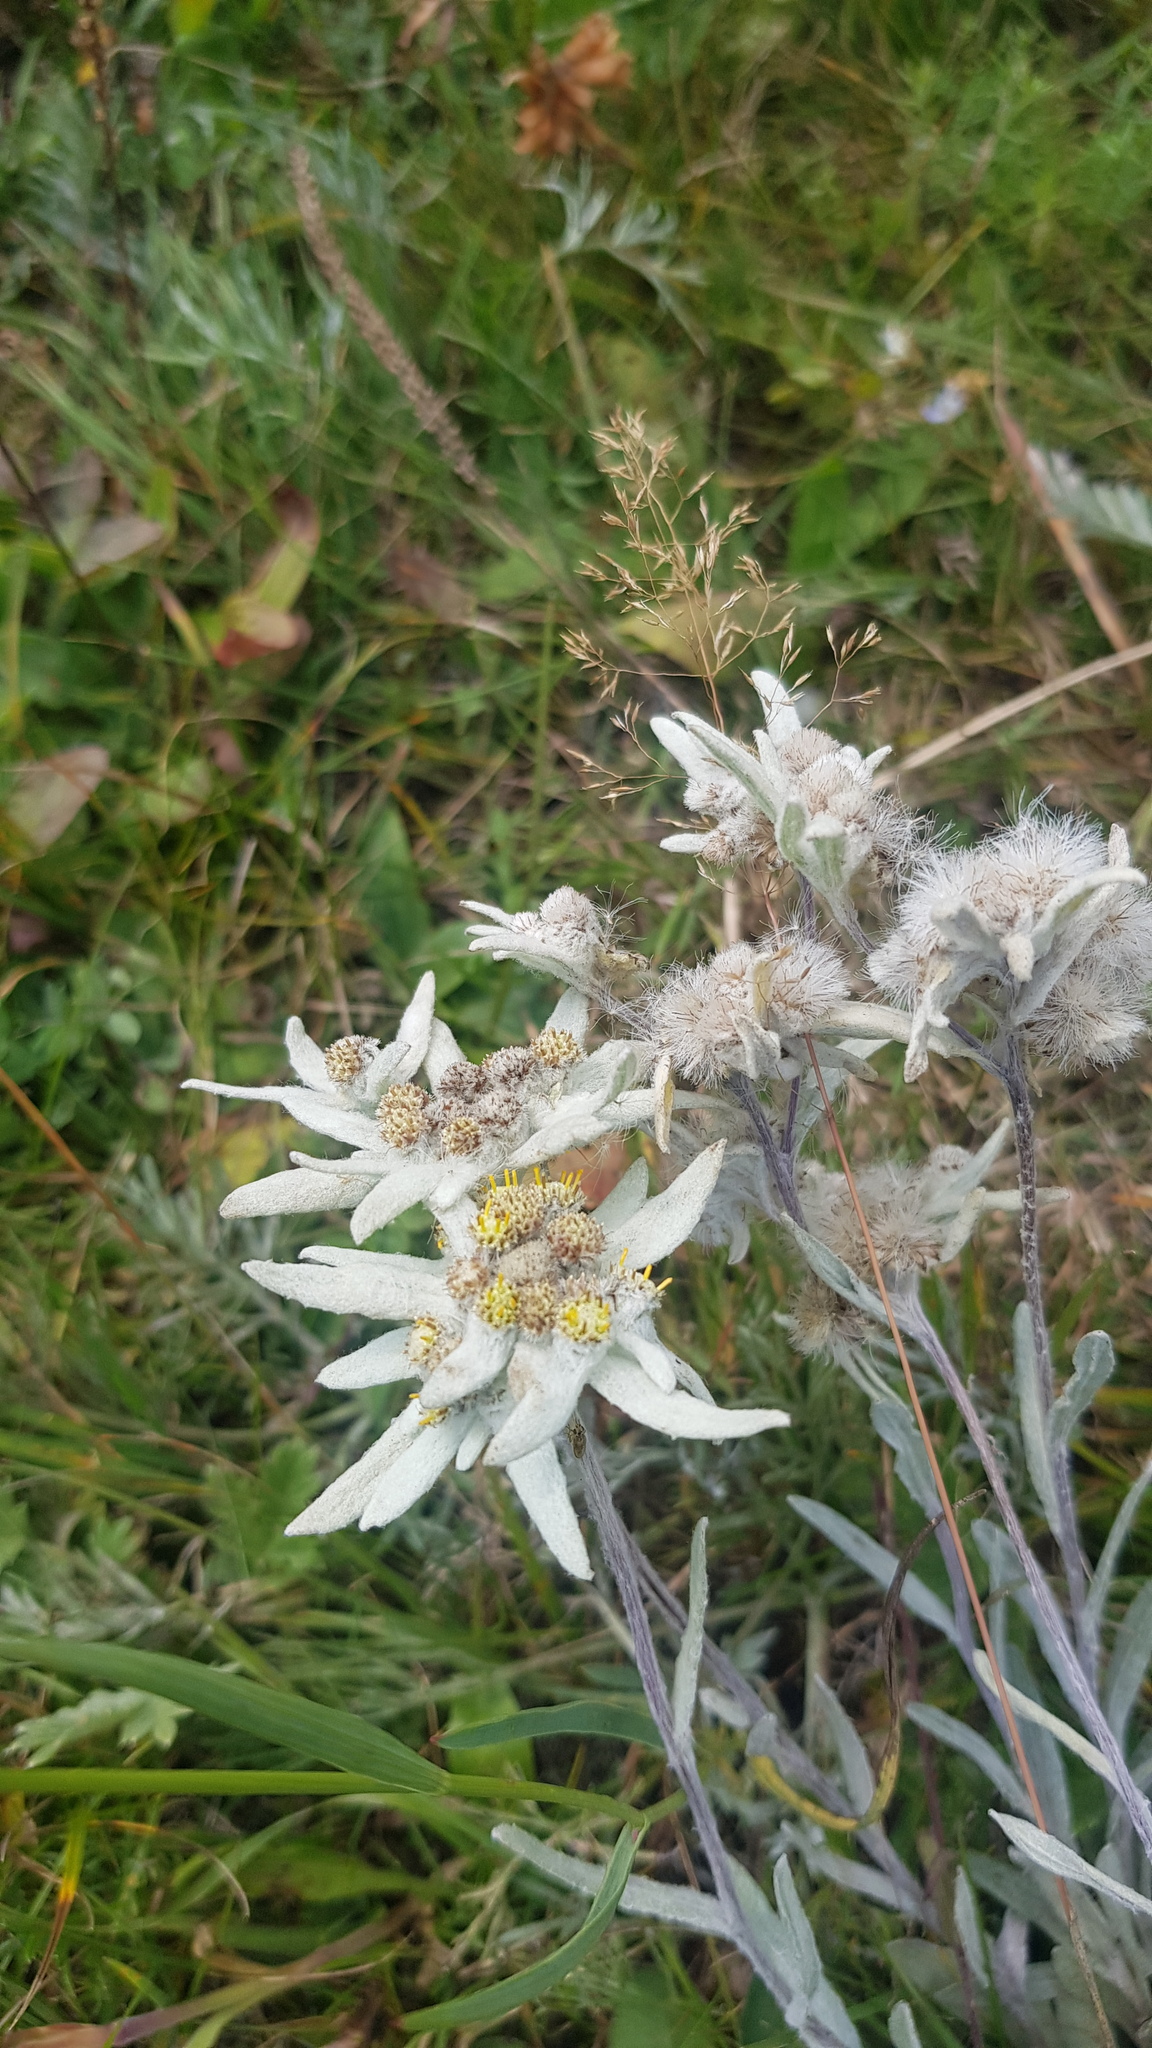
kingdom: Plantae
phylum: Tracheophyta
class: Magnoliopsida
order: Asterales
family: Asteraceae
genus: Leontopodium
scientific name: Leontopodium leontopodinum
